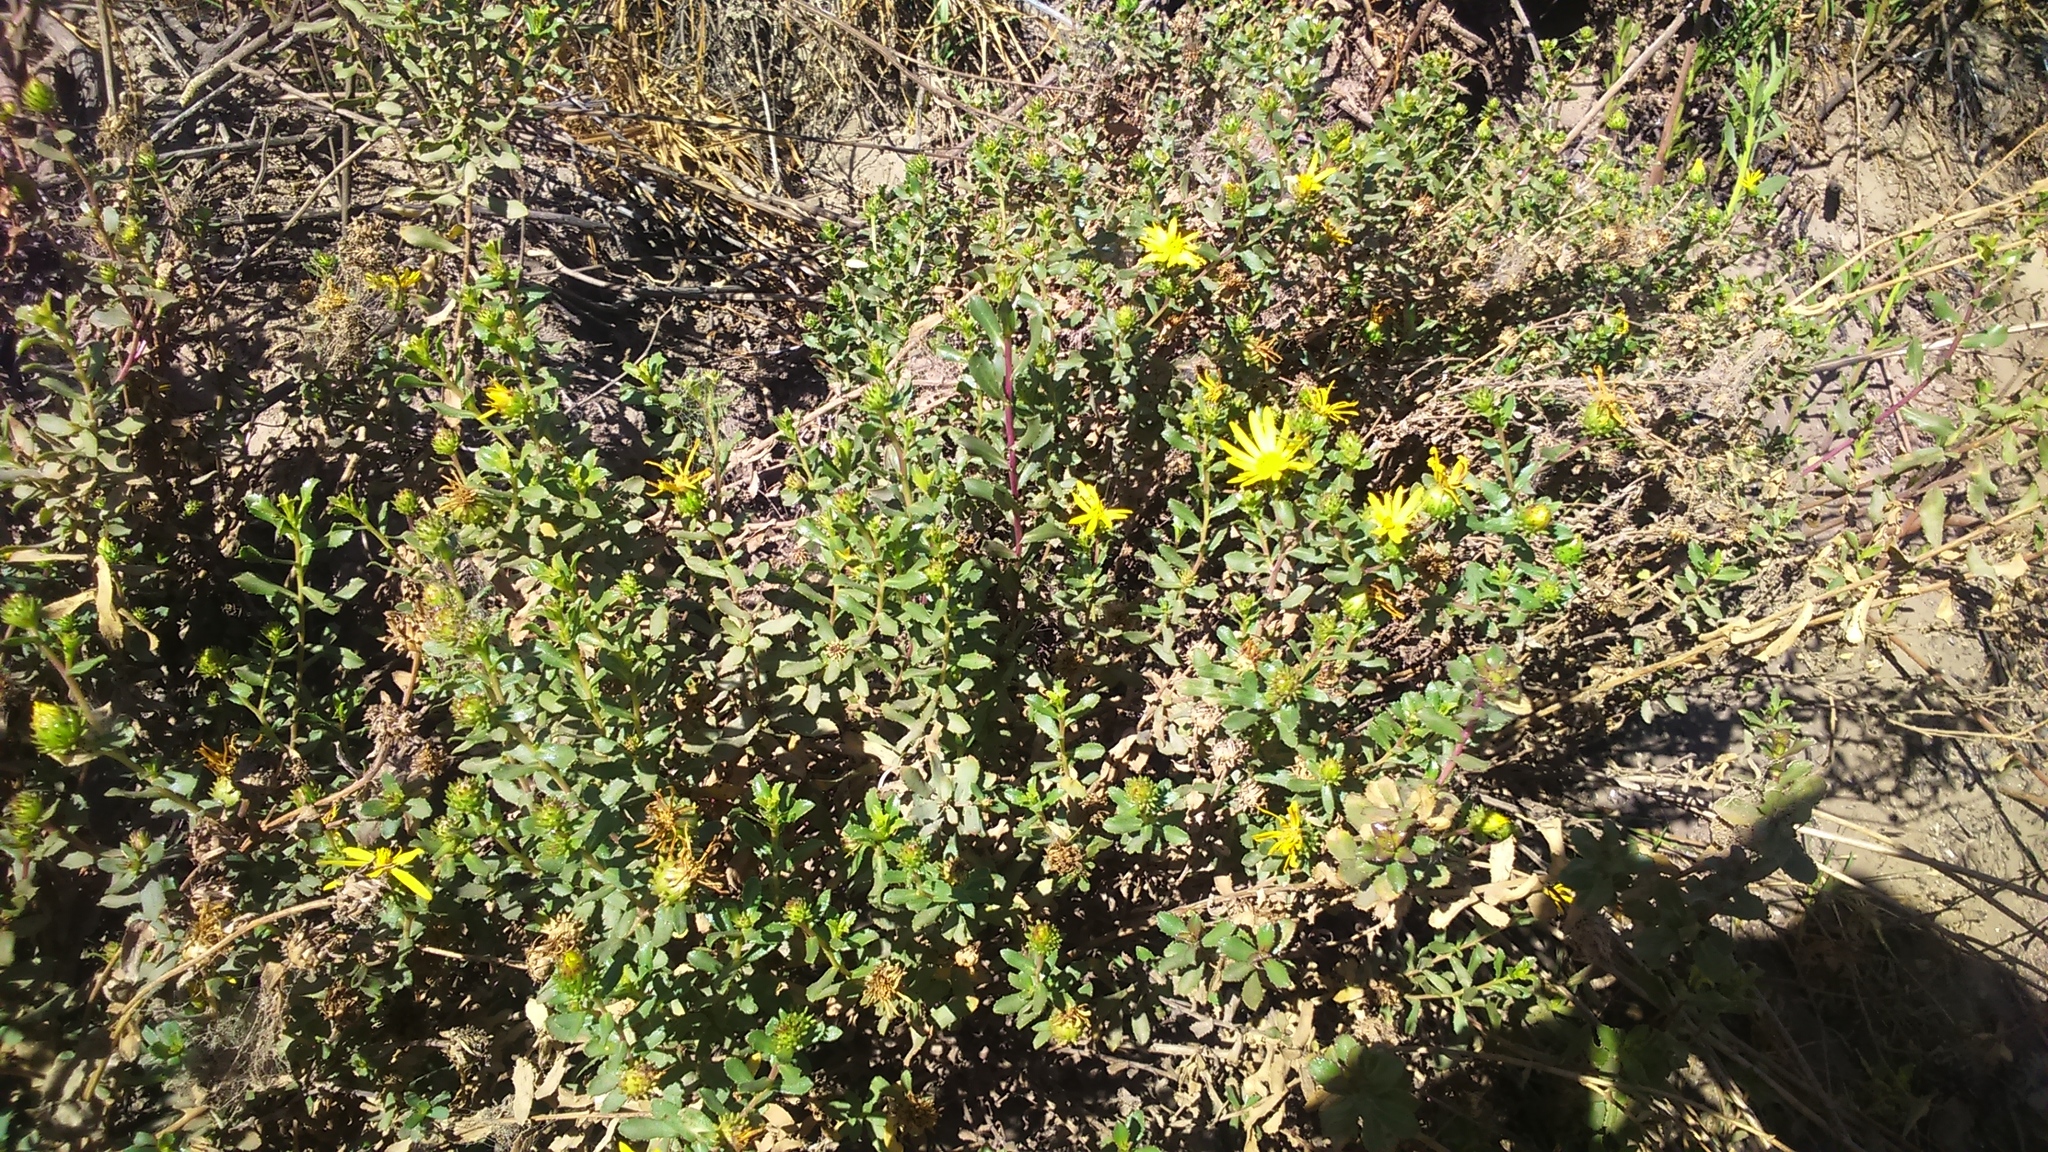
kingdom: Plantae
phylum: Tracheophyta
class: Magnoliopsida
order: Asterales
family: Asteraceae
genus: Grindelia
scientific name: Grindelia tarapacana
